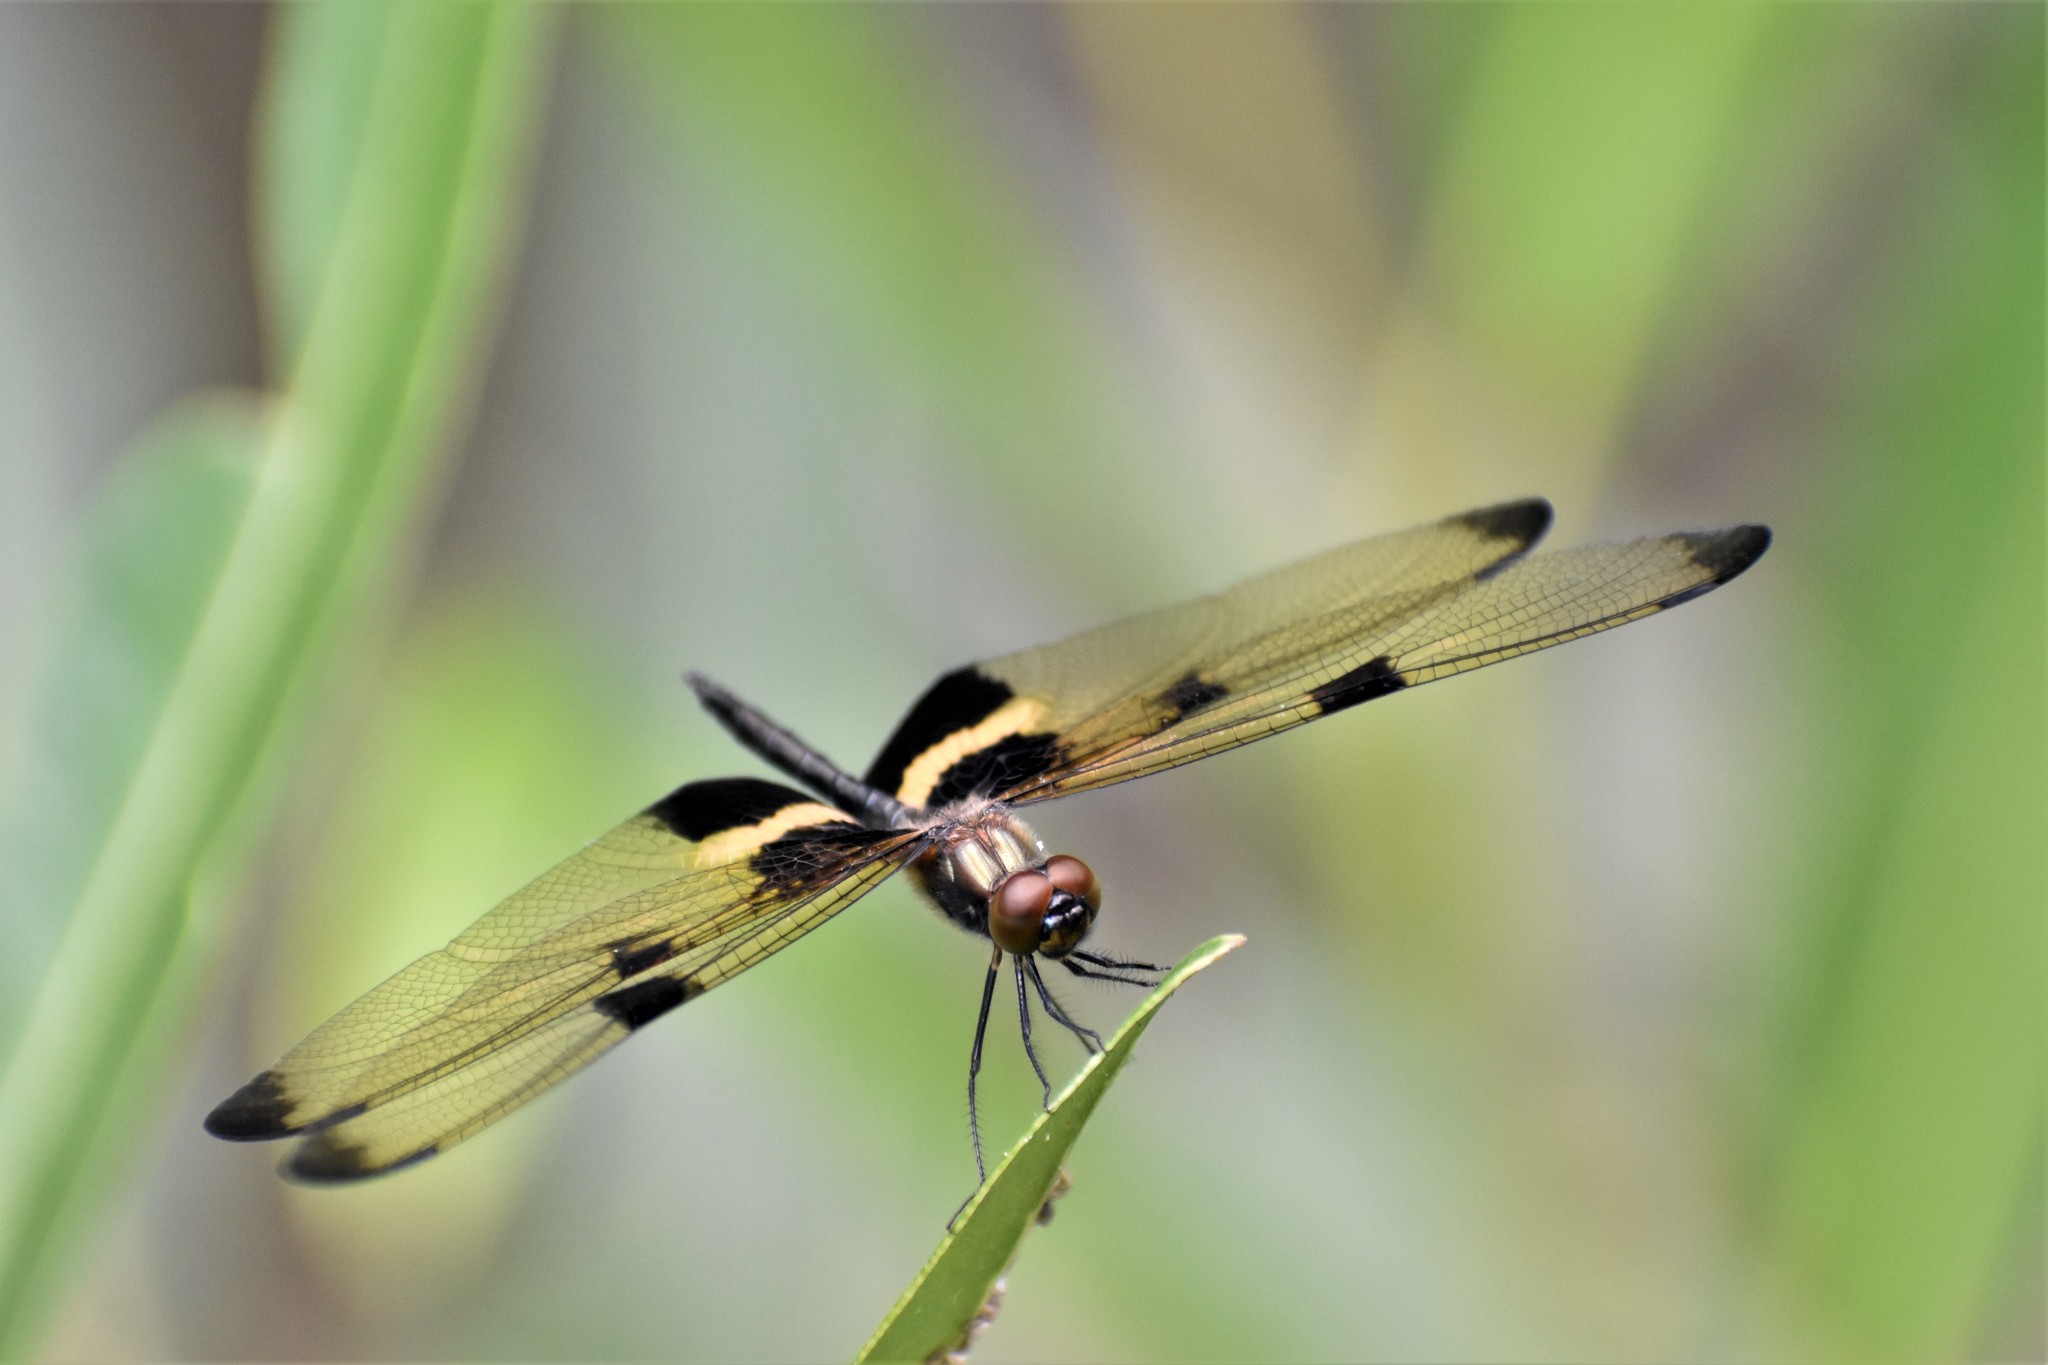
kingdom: Animalia
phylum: Arthropoda
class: Insecta
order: Odonata
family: Libellulidae
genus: Rhyothemis
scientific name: Rhyothemis phyllis
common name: Yellow-barred flutterer
